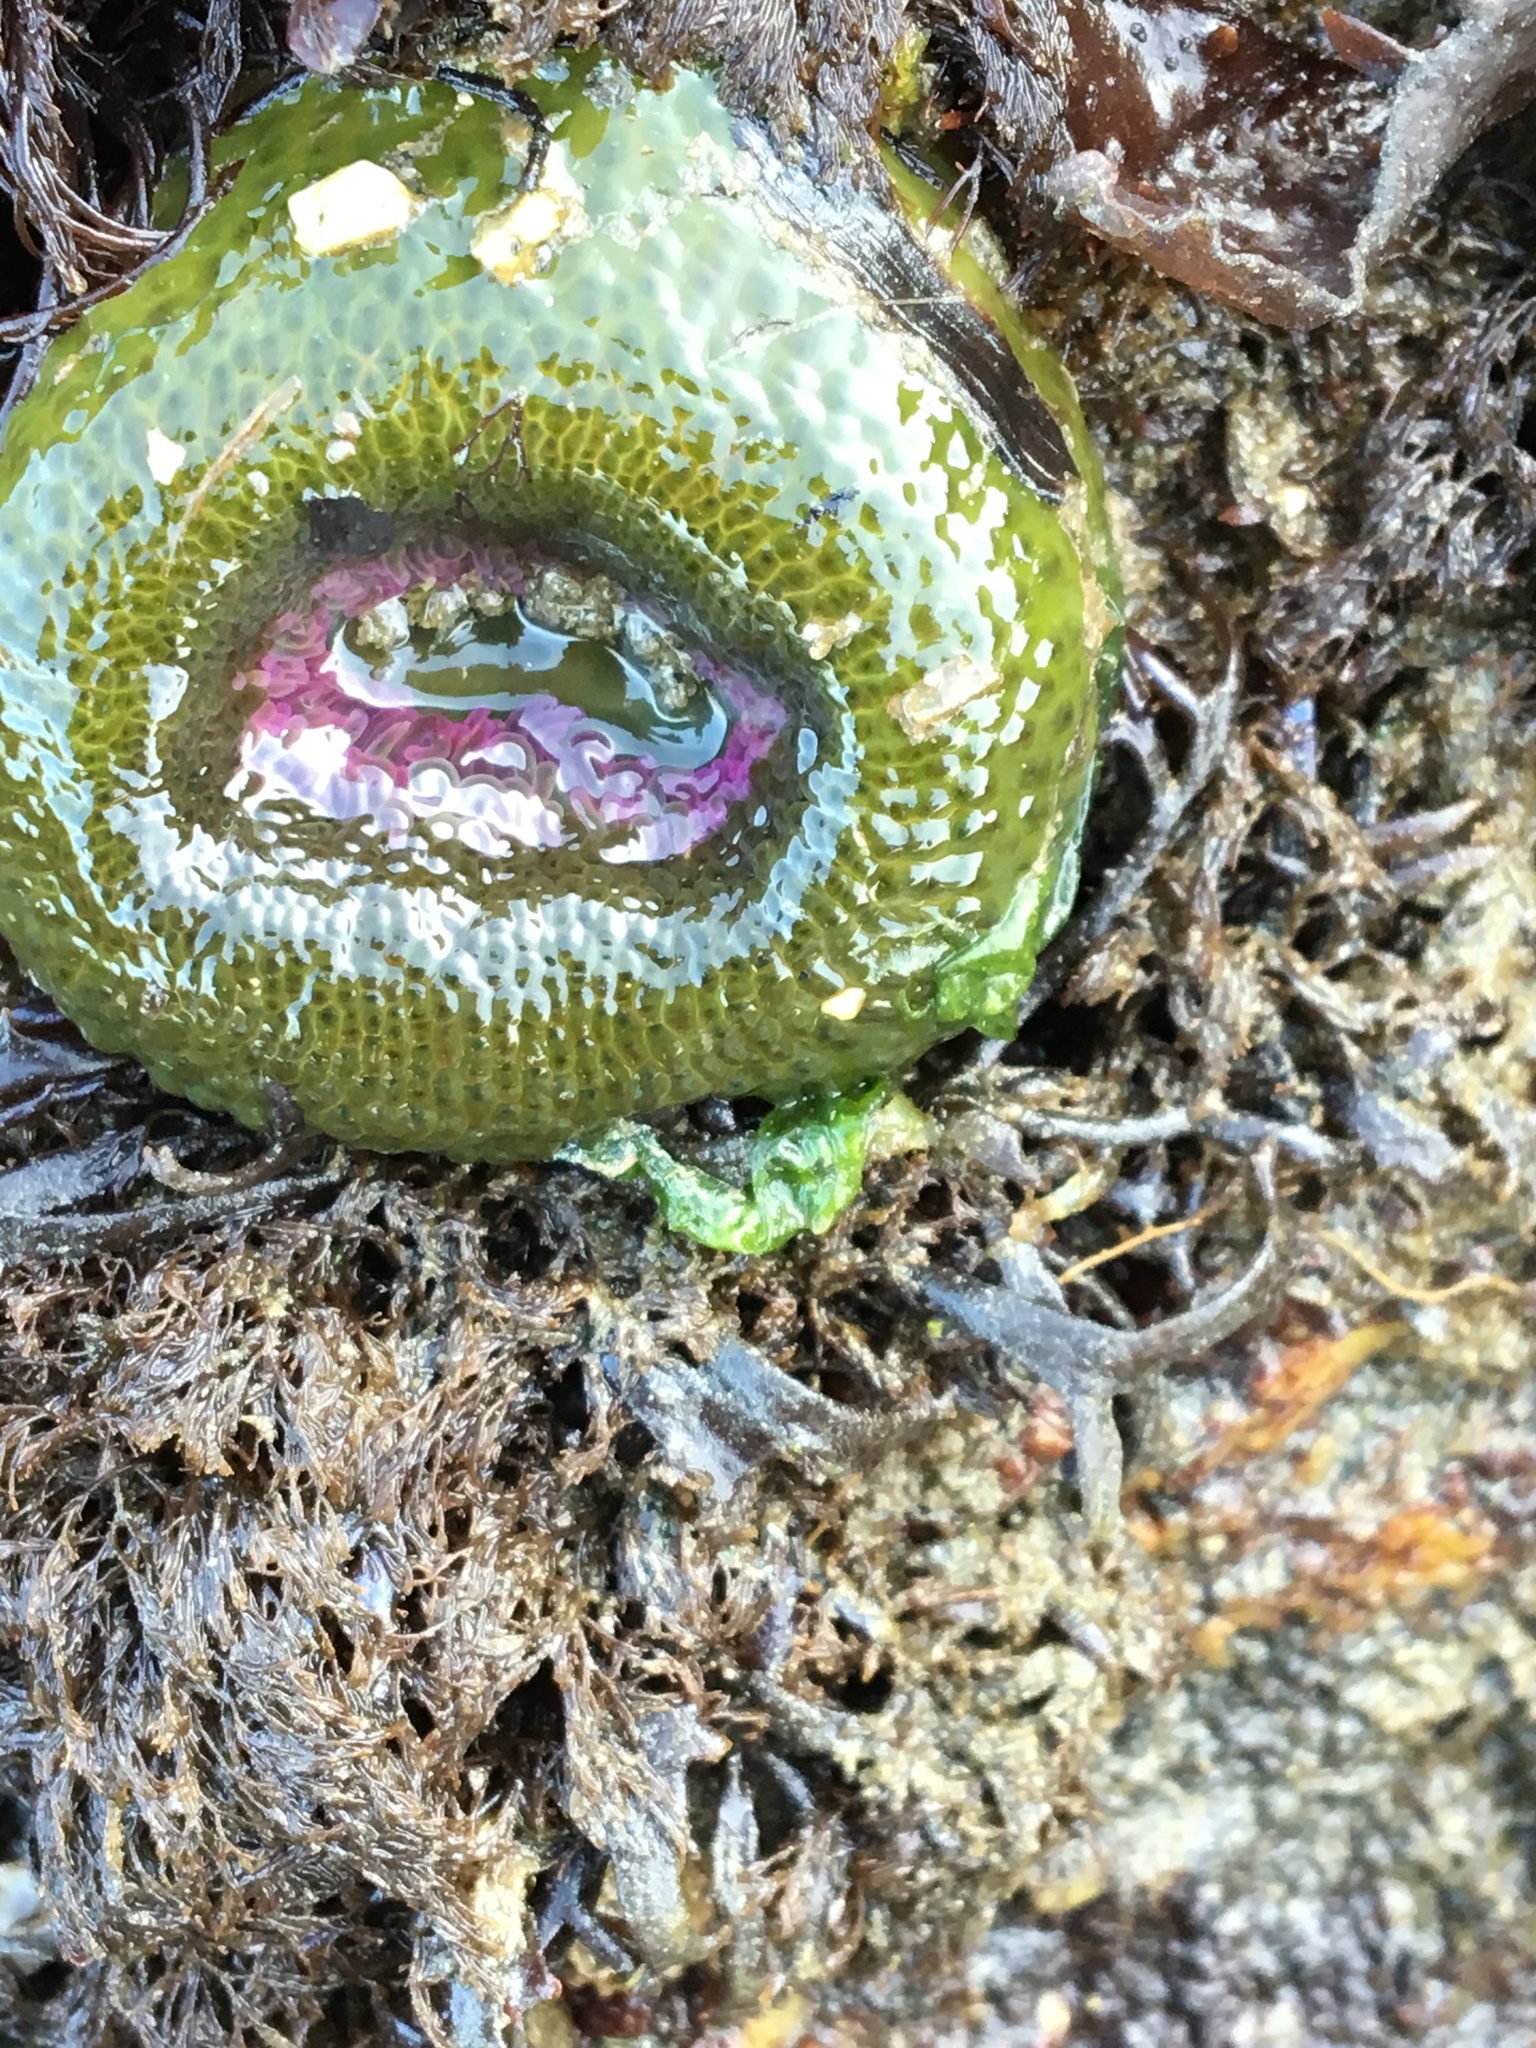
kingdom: Animalia
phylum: Cnidaria
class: Anthozoa
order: Actiniaria
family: Actiniidae
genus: Anthopleura
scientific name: Anthopleura elegantissima
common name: Clonal anemone
